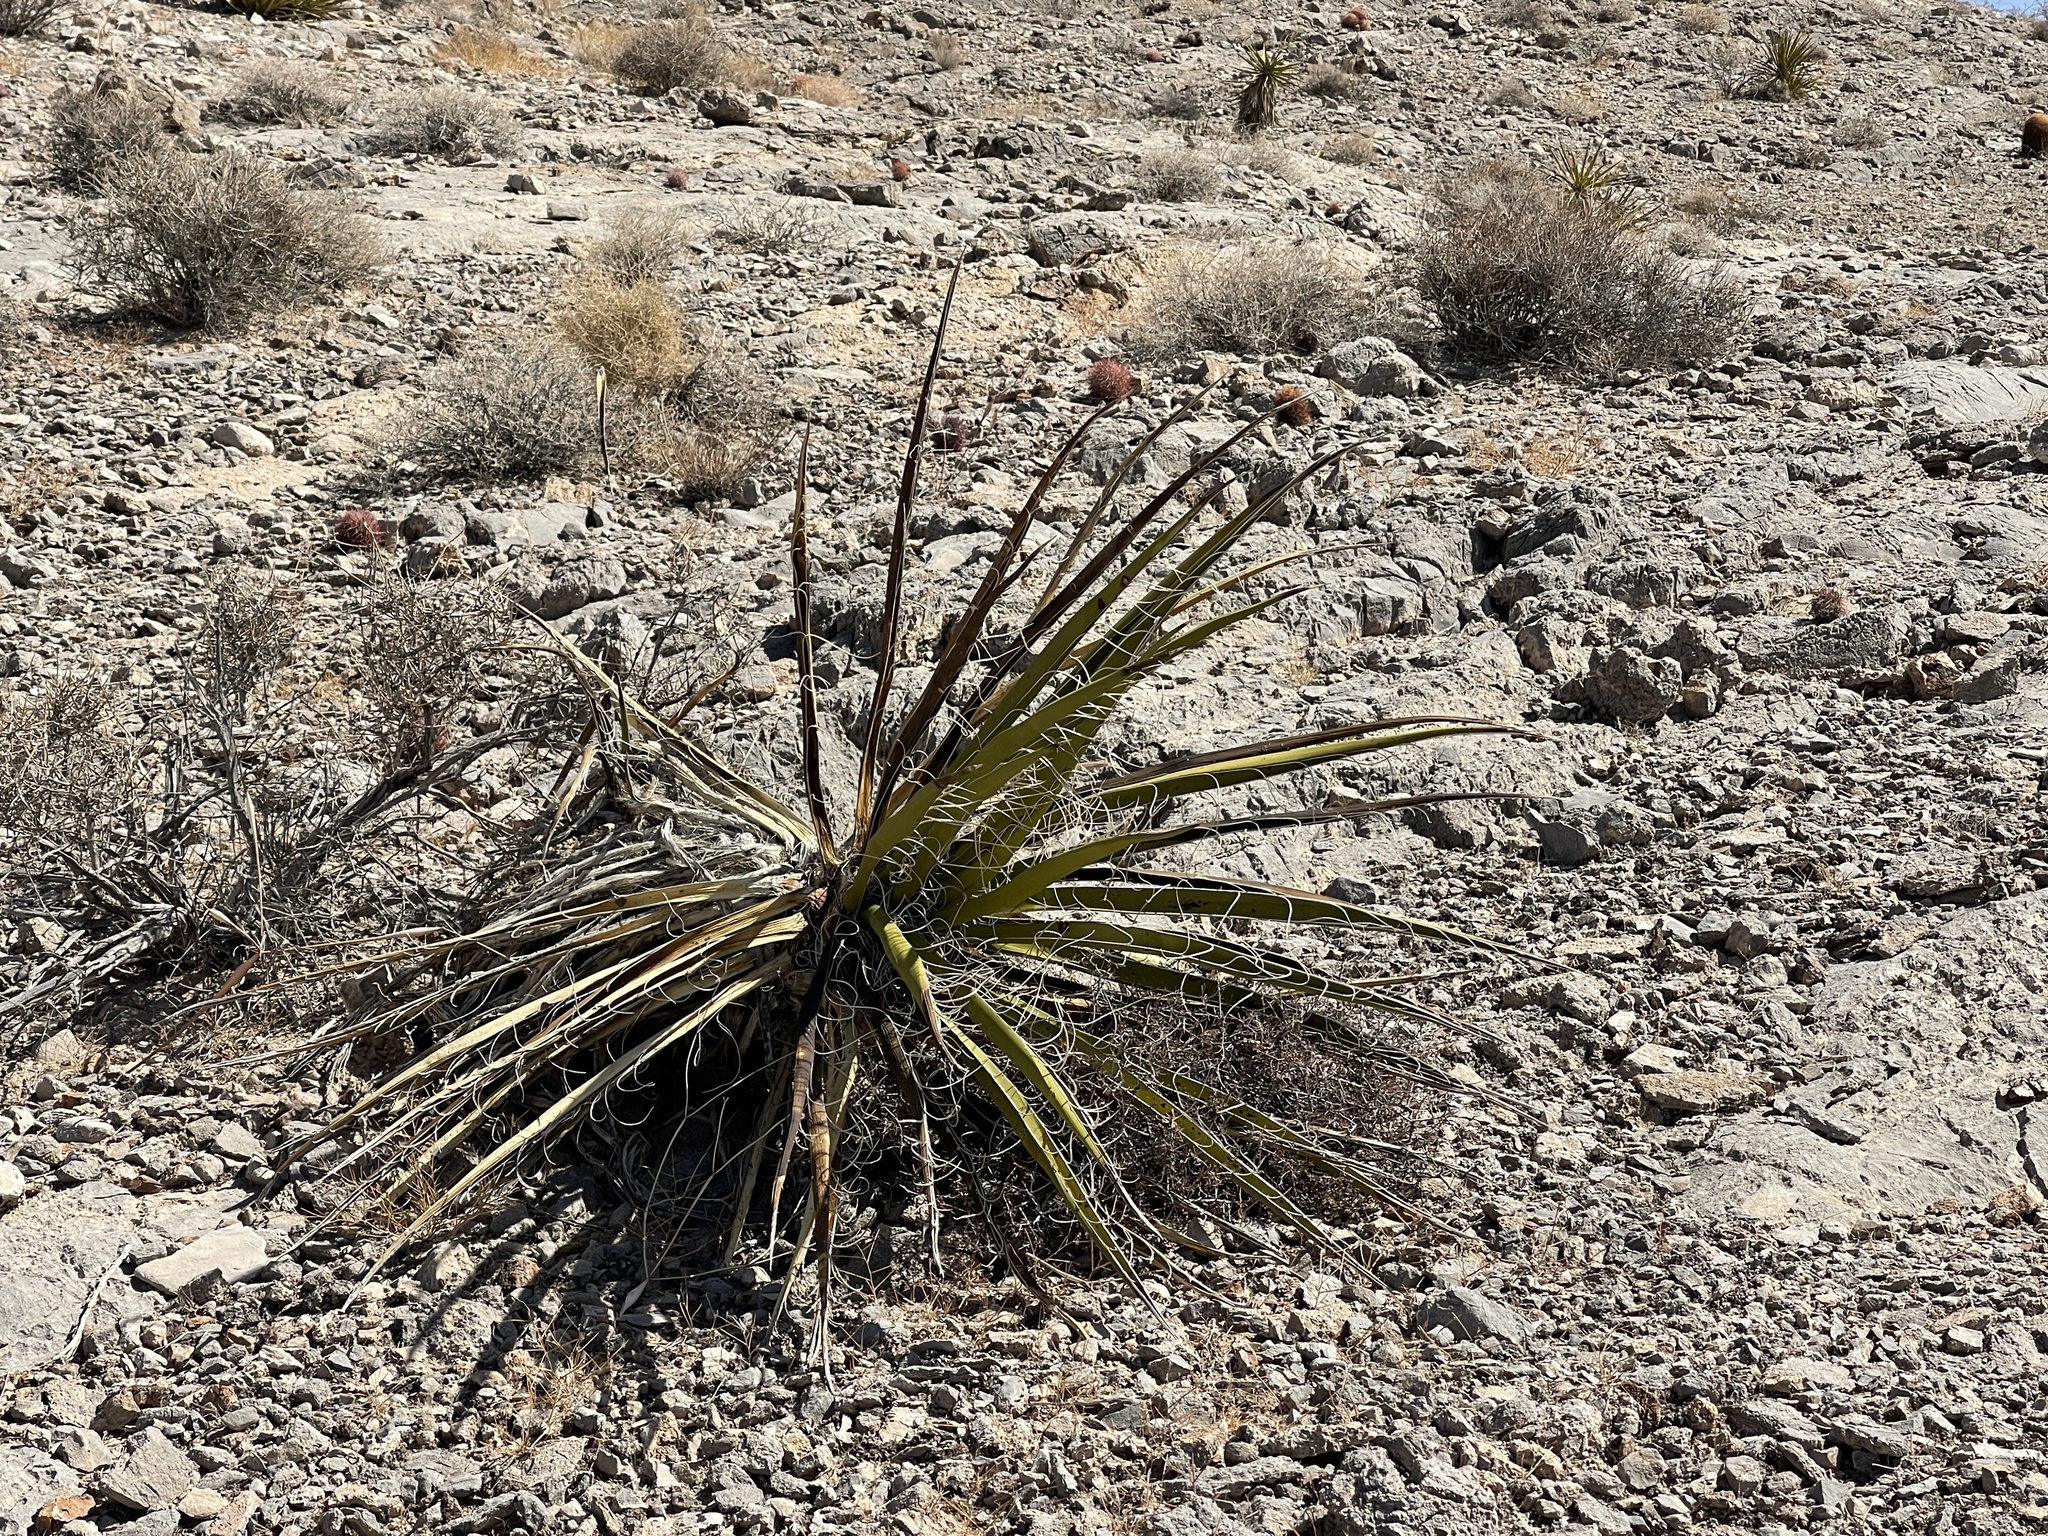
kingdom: Plantae
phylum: Tracheophyta
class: Liliopsida
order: Asparagales
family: Asparagaceae
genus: Yucca
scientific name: Yucca schidigera
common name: Mojave yucca
